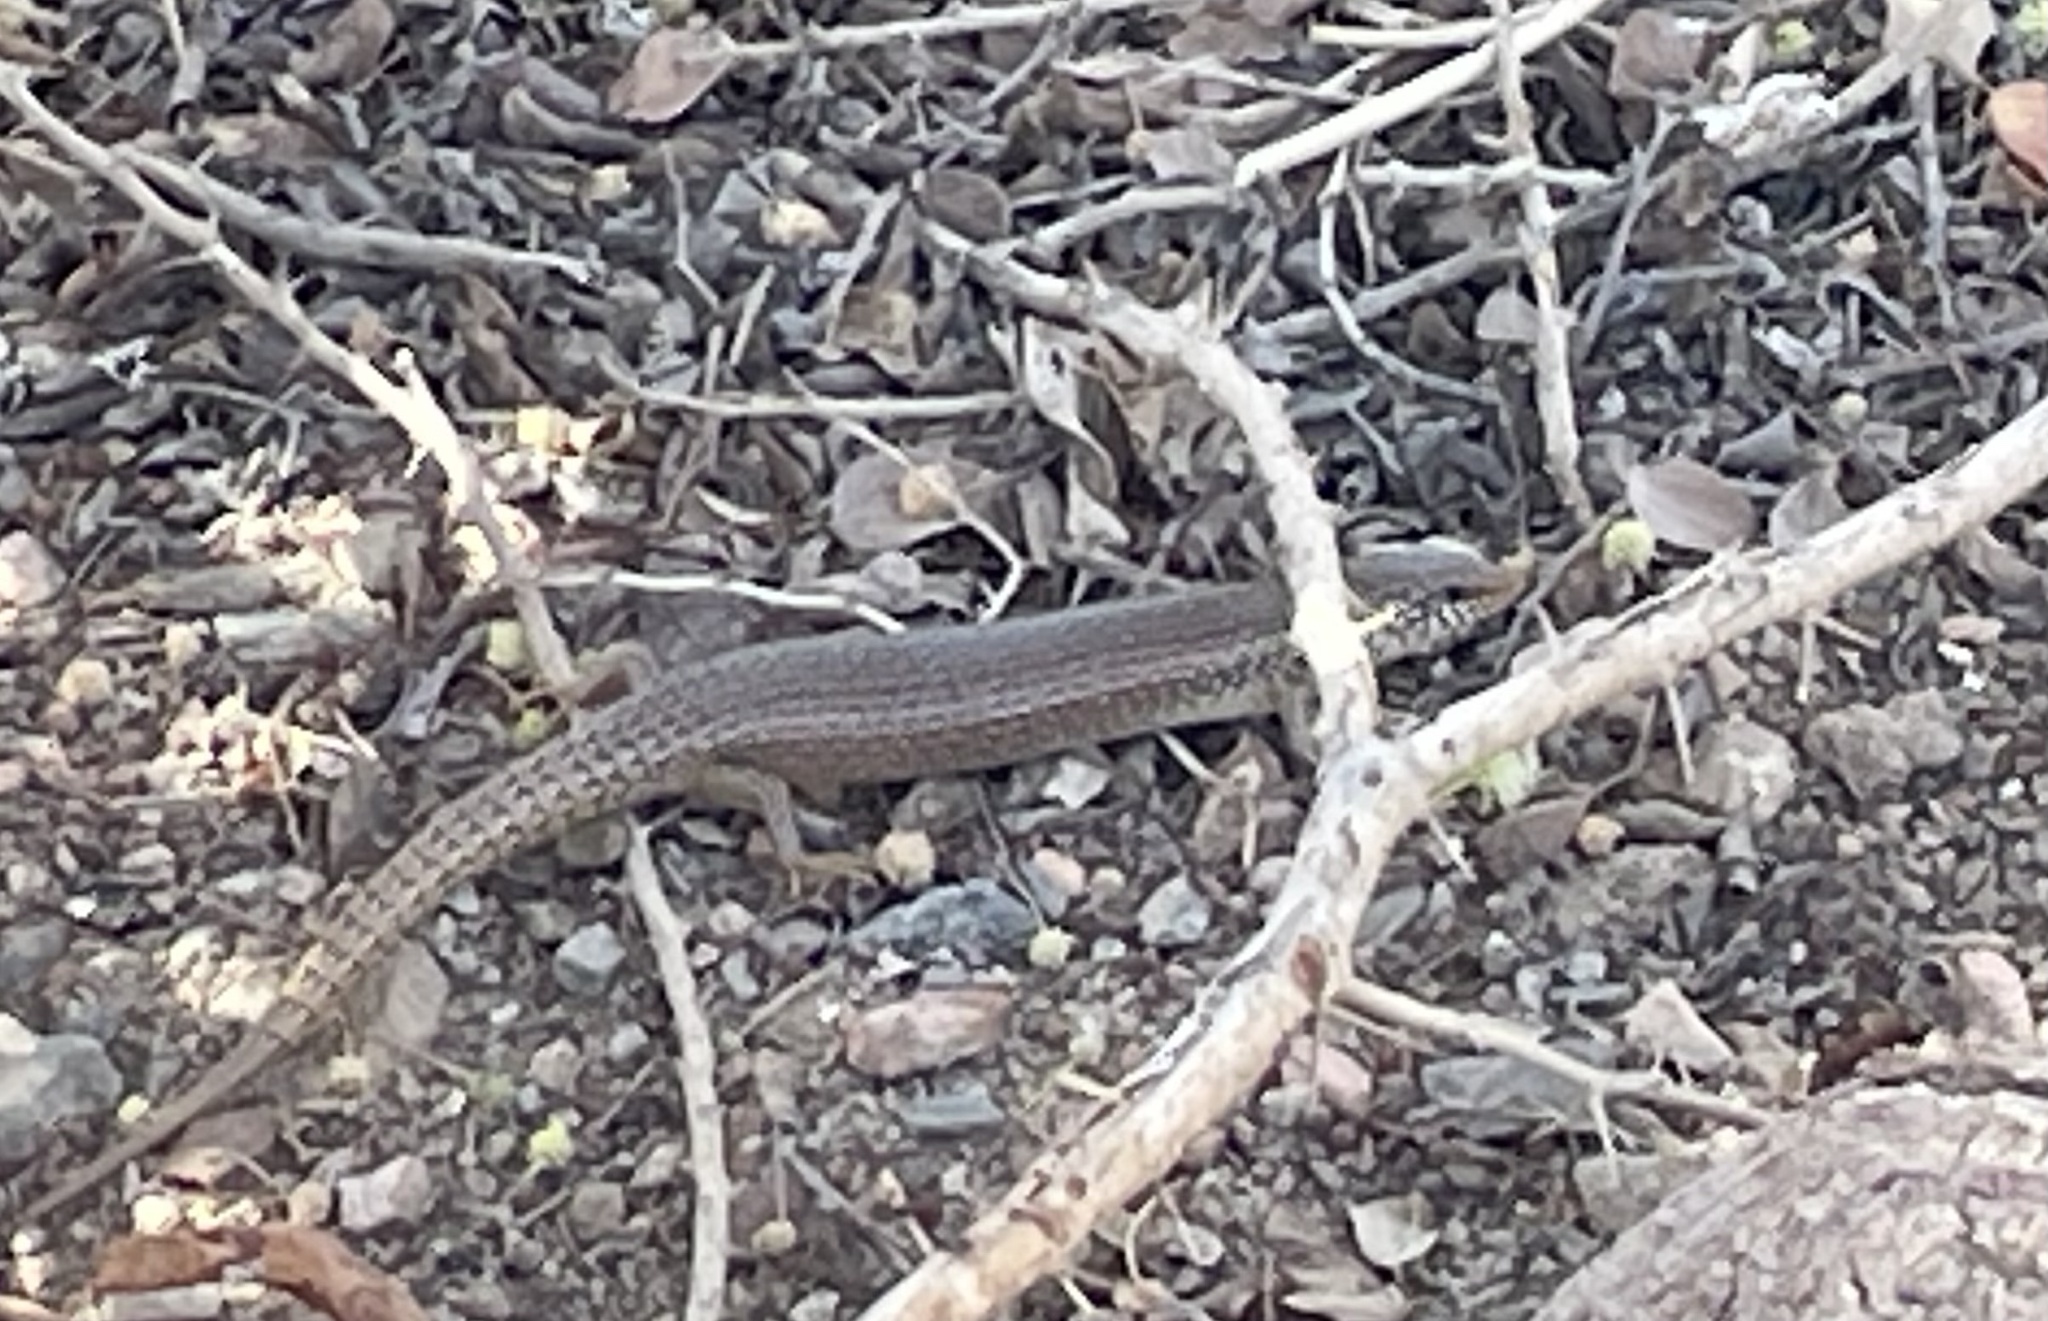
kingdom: Animalia
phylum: Chordata
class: Squamata
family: Scincidae
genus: Chalcides
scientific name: Chalcides ocellatus
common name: Ocellated skink
